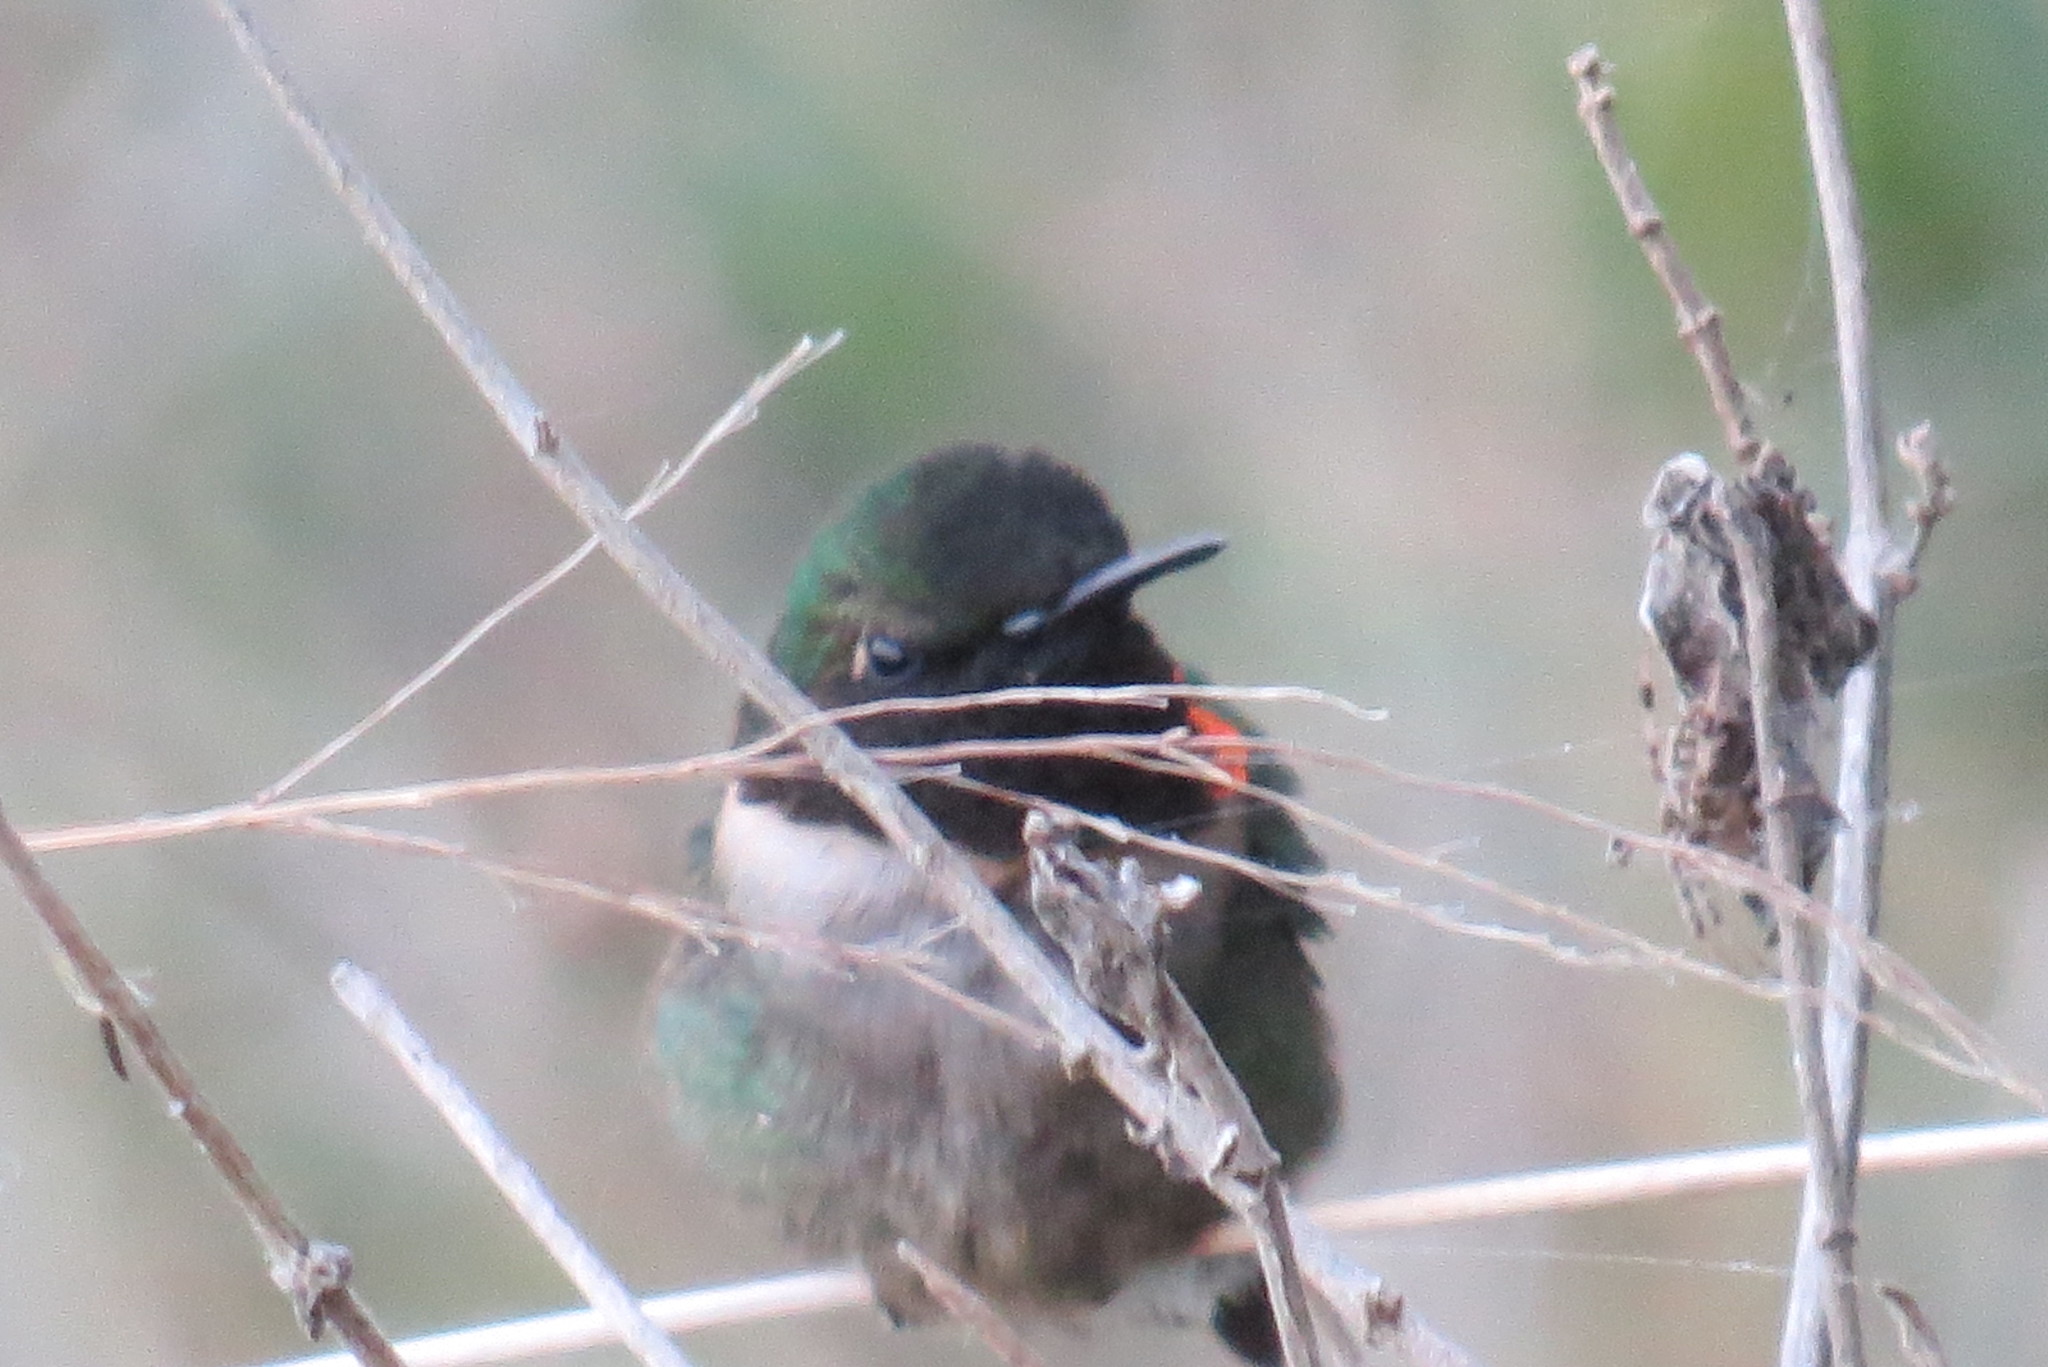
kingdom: Animalia
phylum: Chordata
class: Aves
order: Apodiformes
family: Trochilidae
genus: Archilochus
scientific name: Archilochus colubris
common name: Ruby-throated hummingbird
